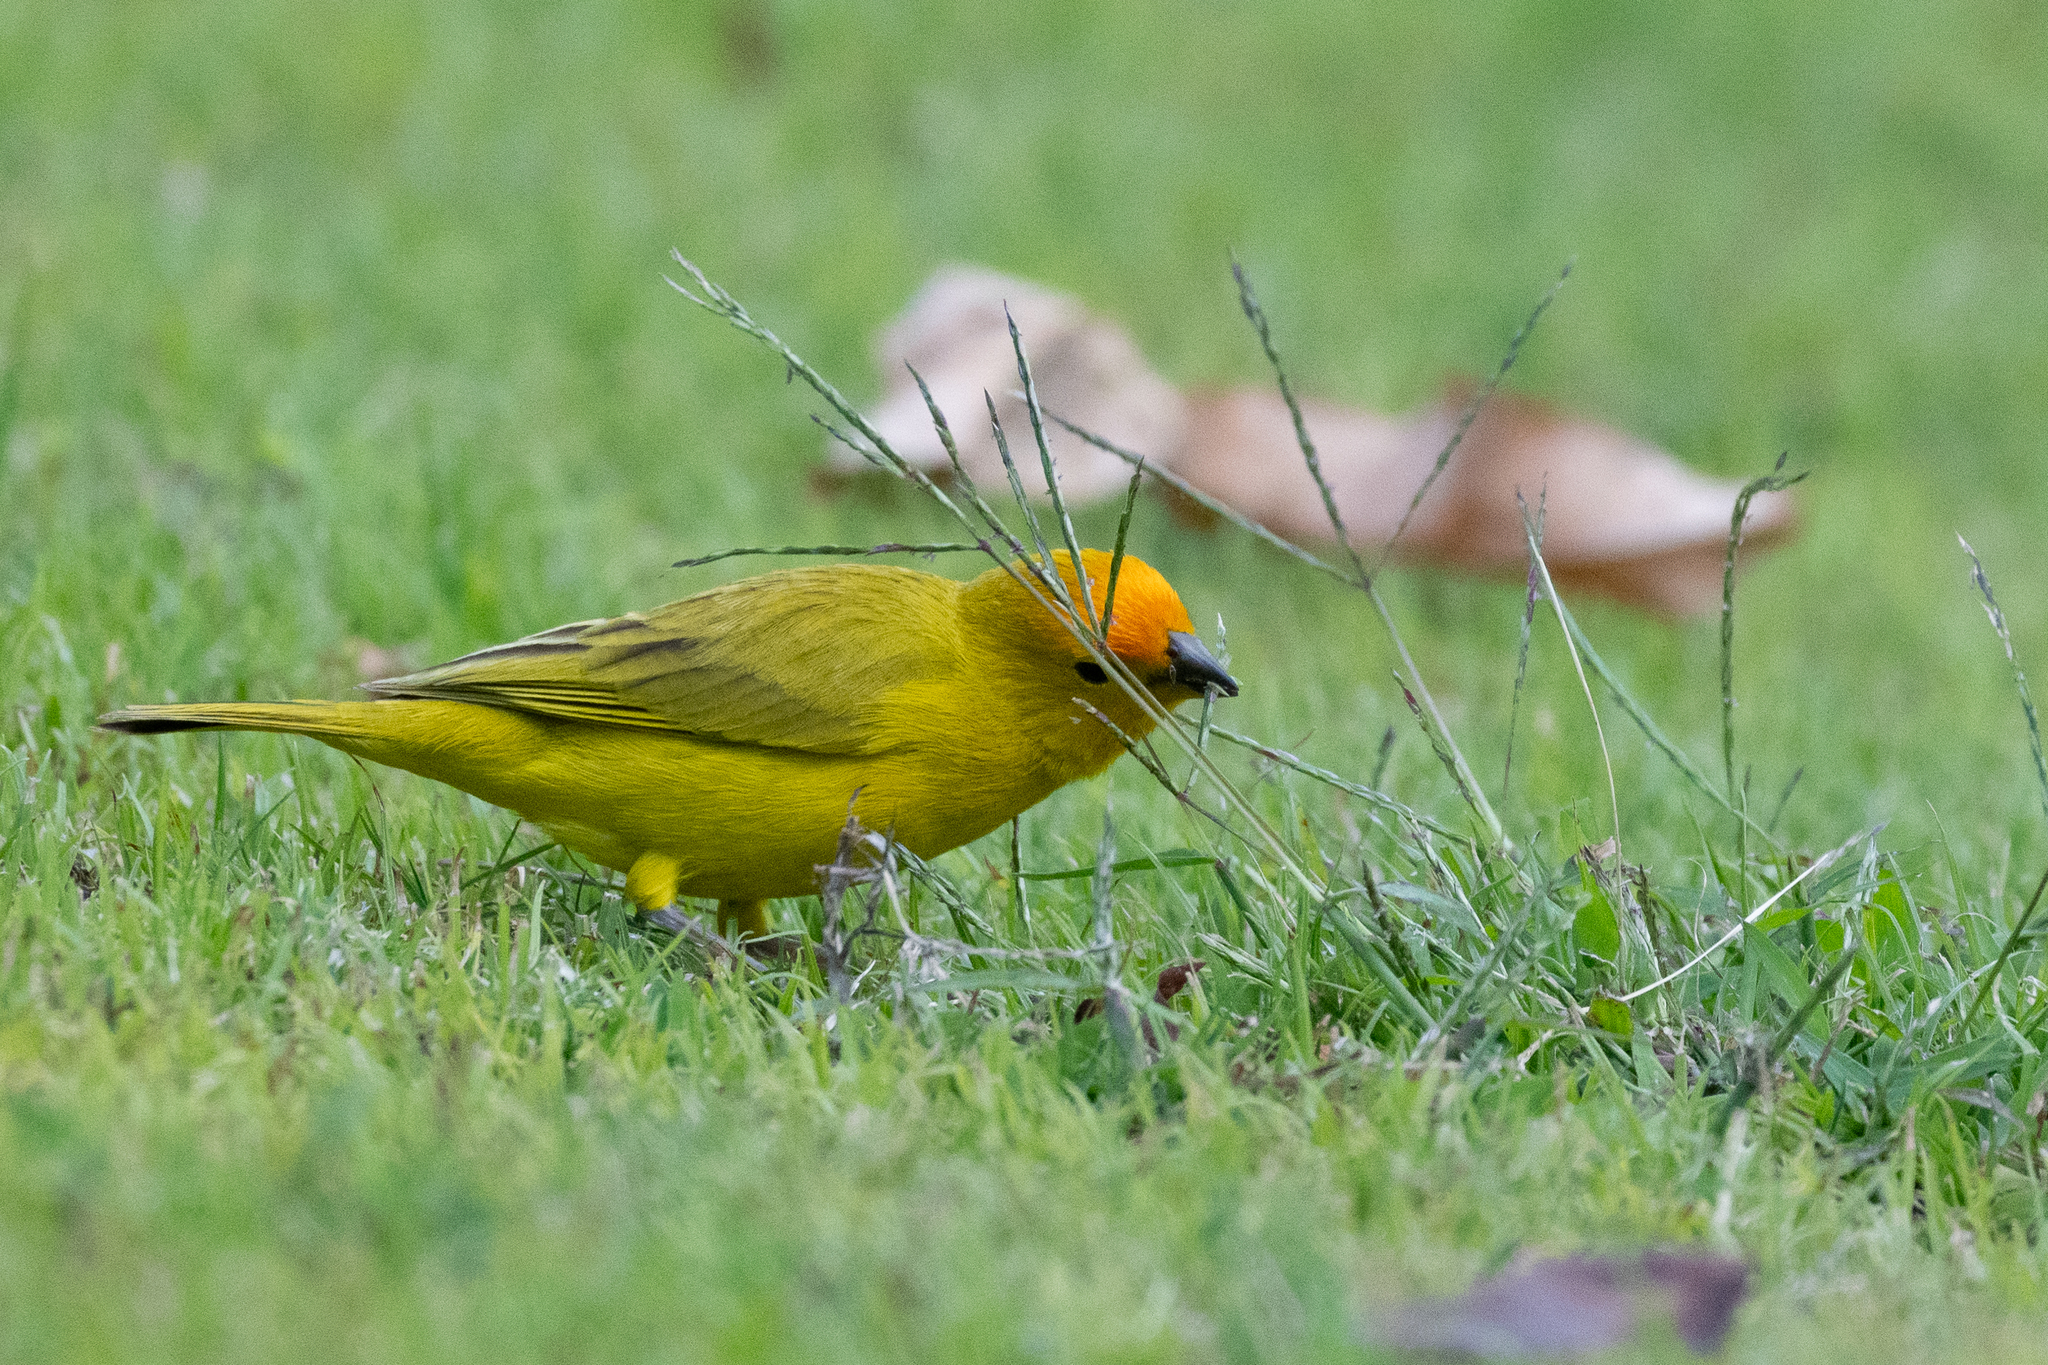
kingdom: Animalia
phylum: Chordata
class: Aves
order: Passeriformes
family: Thraupidae
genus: Sicalis
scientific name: Sicalis flaveola
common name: Saffron finch
